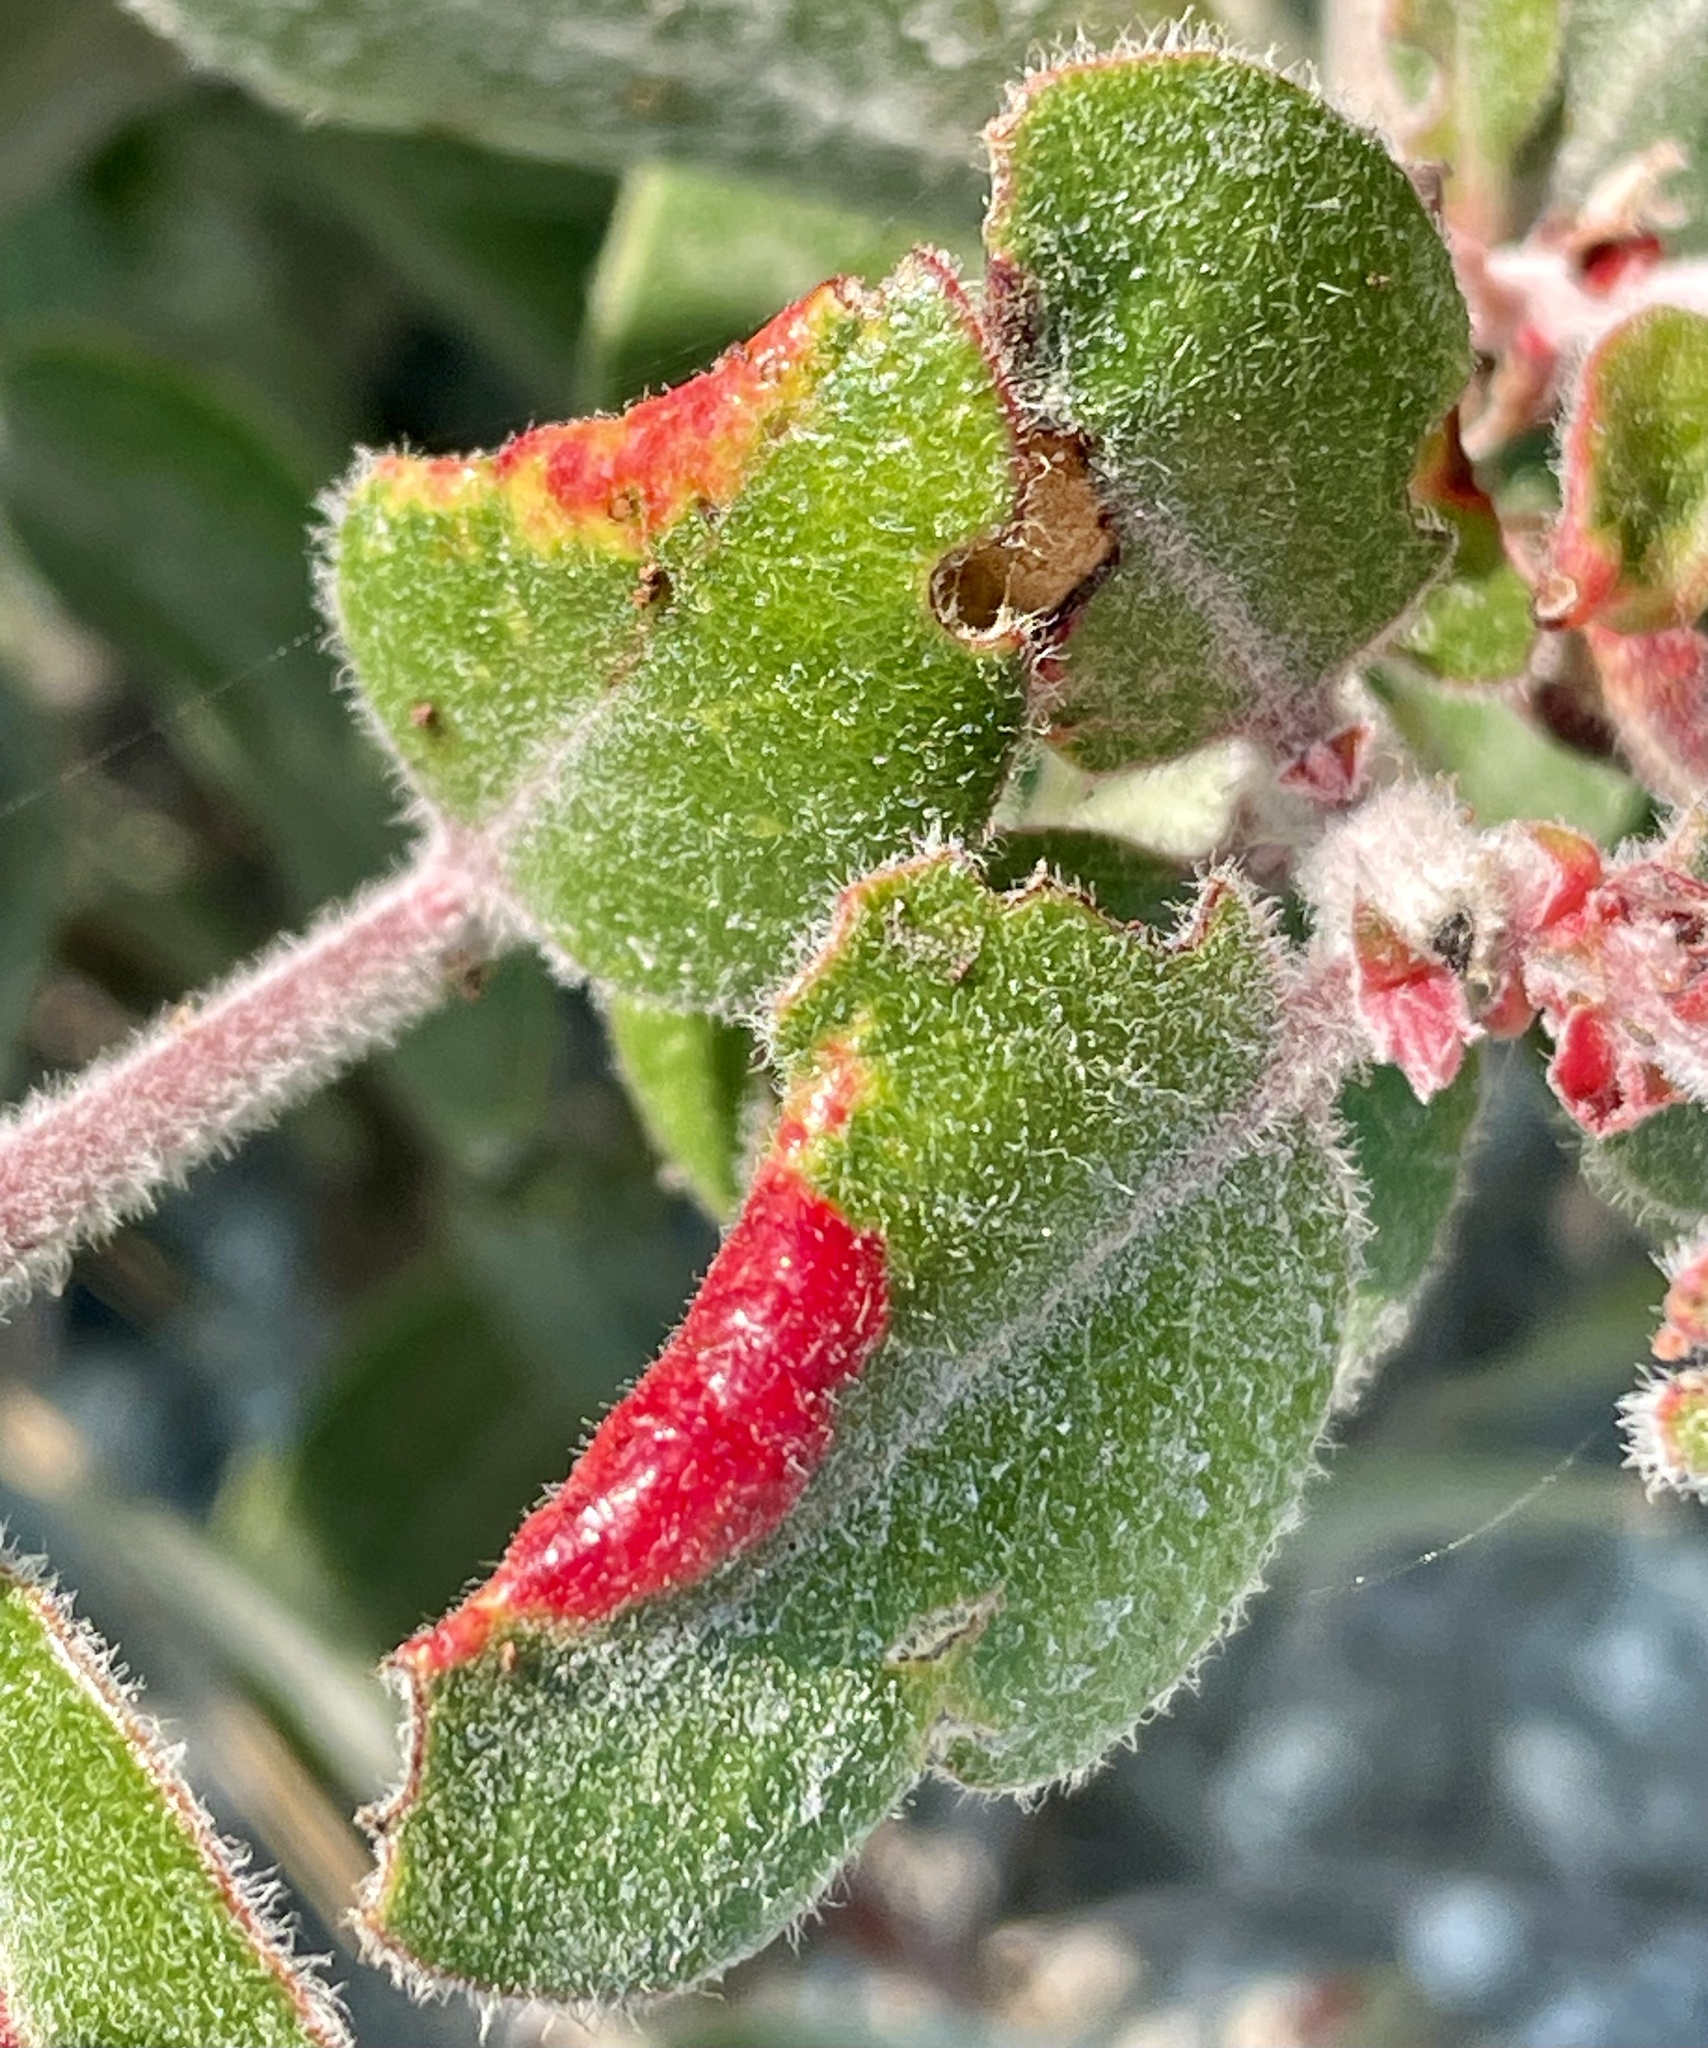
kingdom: Plantae
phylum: Tracheophyta
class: Magnoliopsida
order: Ericales
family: Ericaceae
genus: Arctostaphylos
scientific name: Arctostaphylos tomentosa
